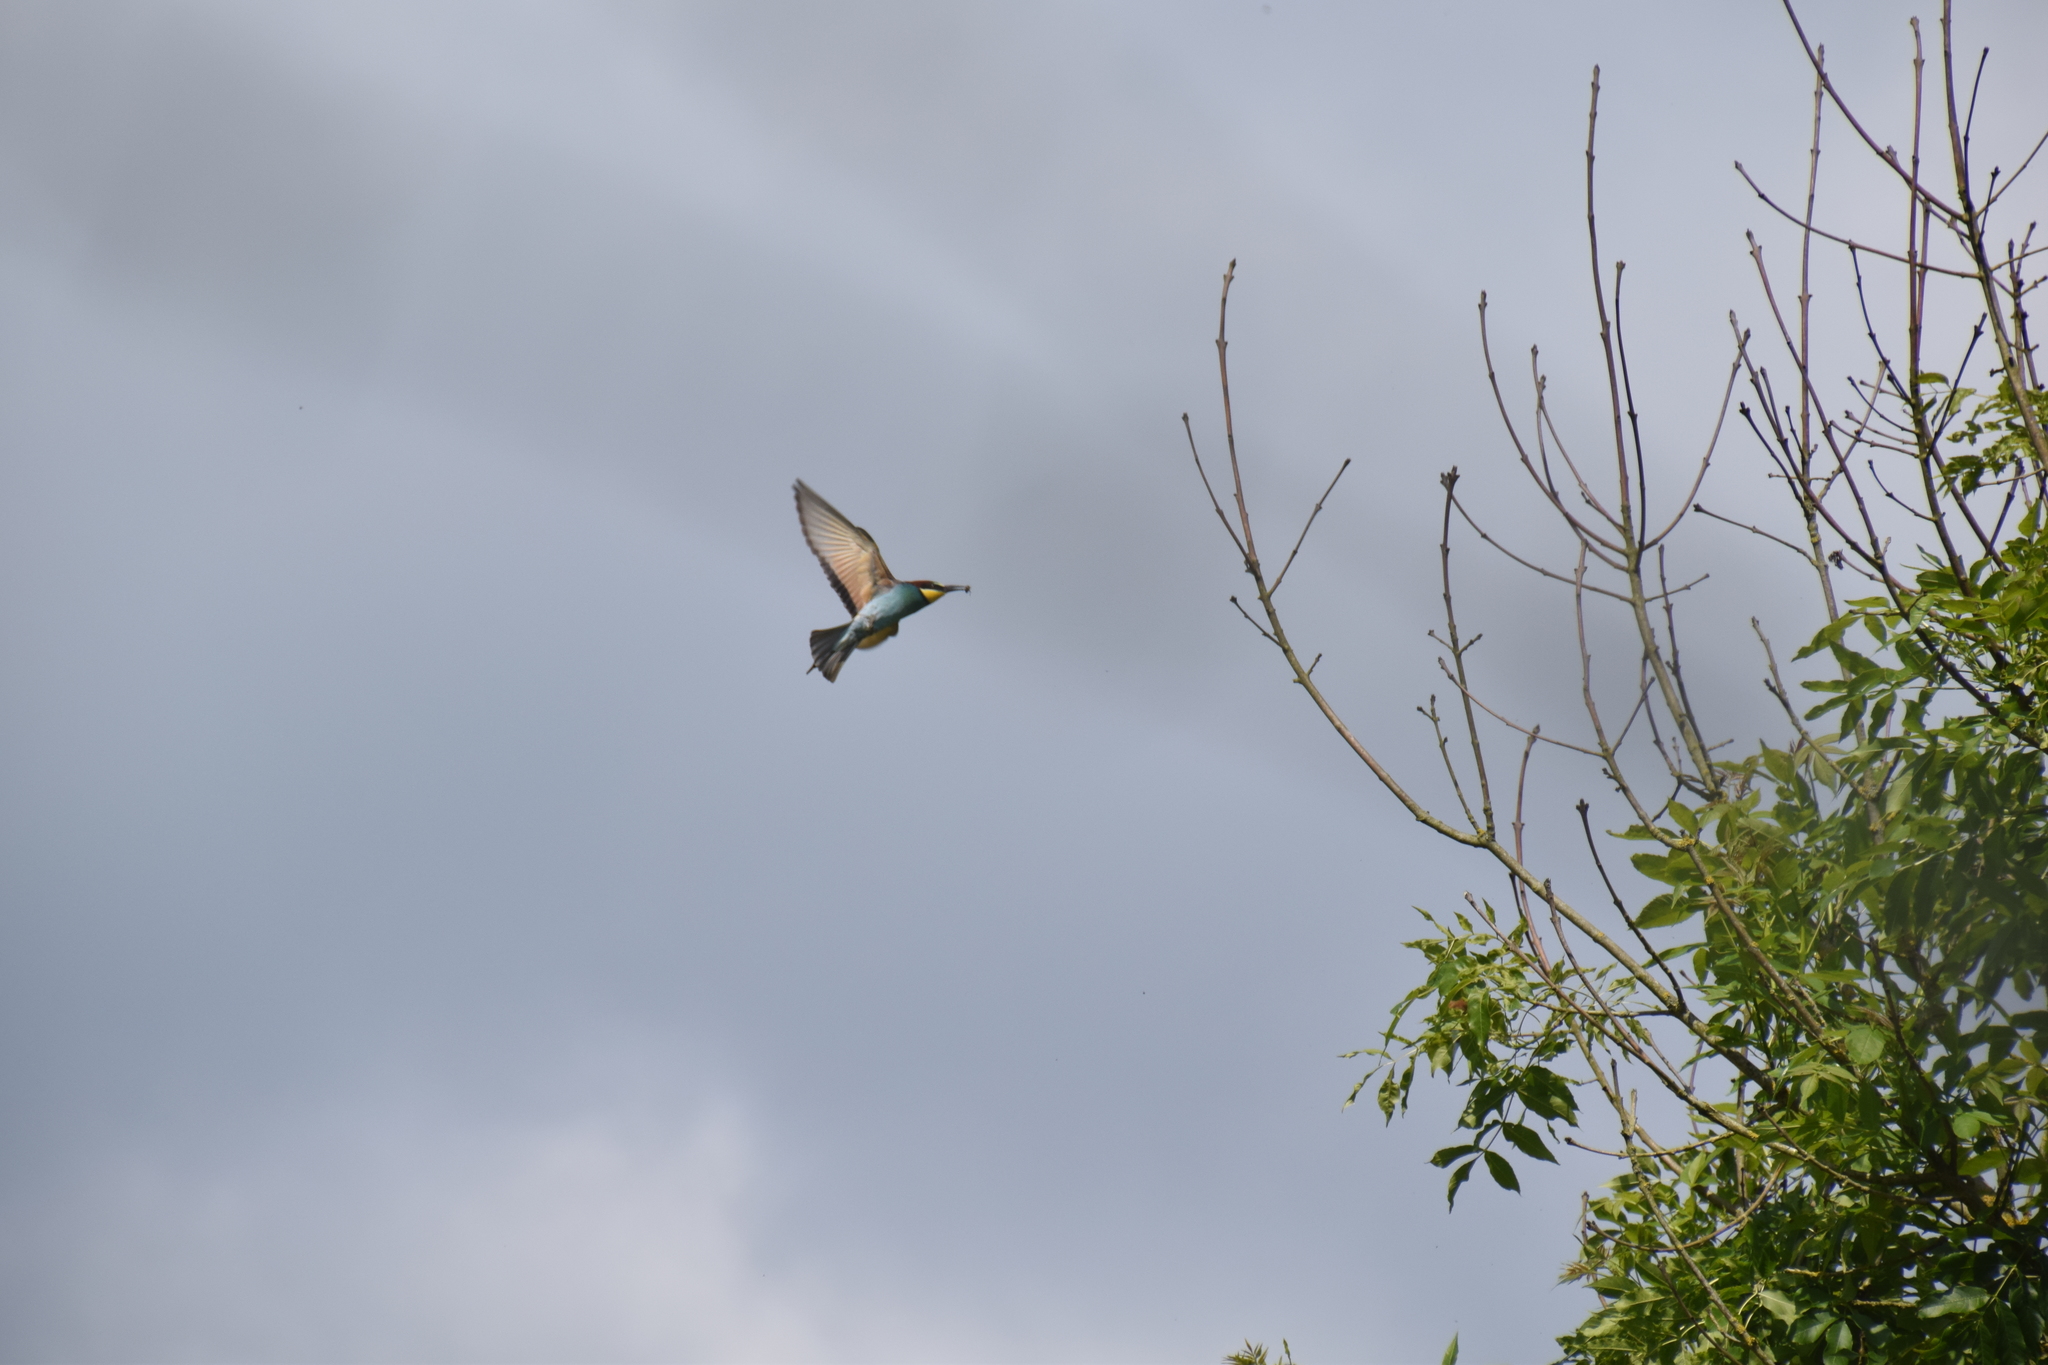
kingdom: Animalia
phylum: Chordata
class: Aves
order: Coraciiformes
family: Meropidae
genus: Merops
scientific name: Merops apiaster
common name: European bee-eater
